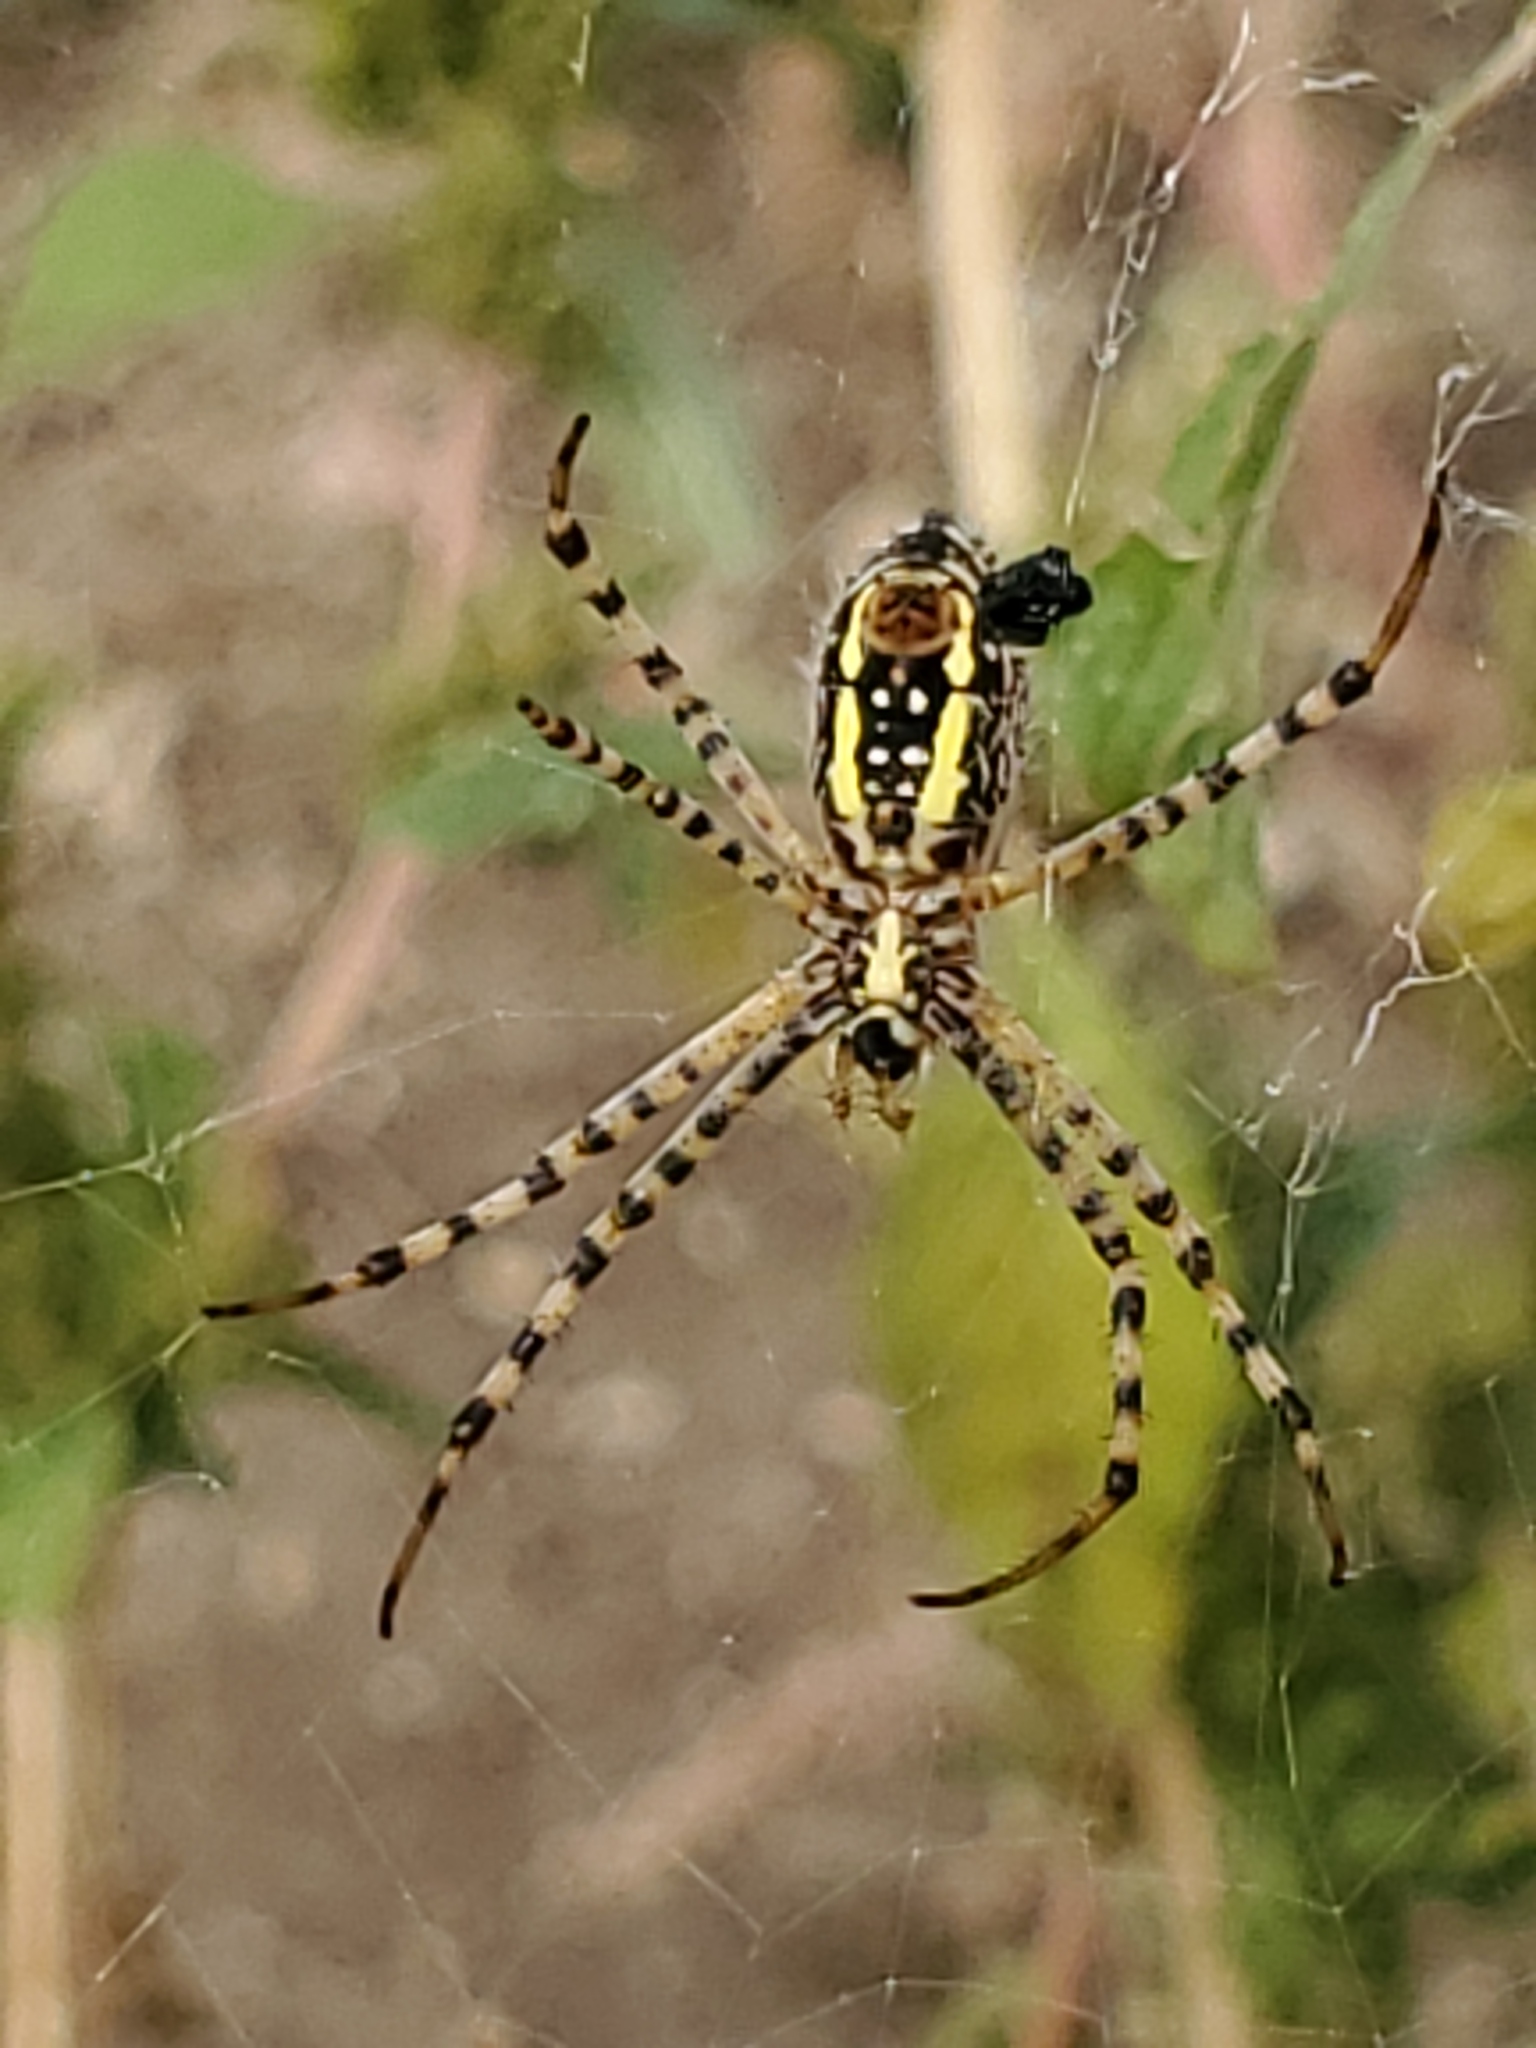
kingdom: Animalia
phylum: Arthropoda
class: Arachnida
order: Araneae
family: Araneidae
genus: Argiope
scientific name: Argiope trifasciata
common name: Banded garden spider
